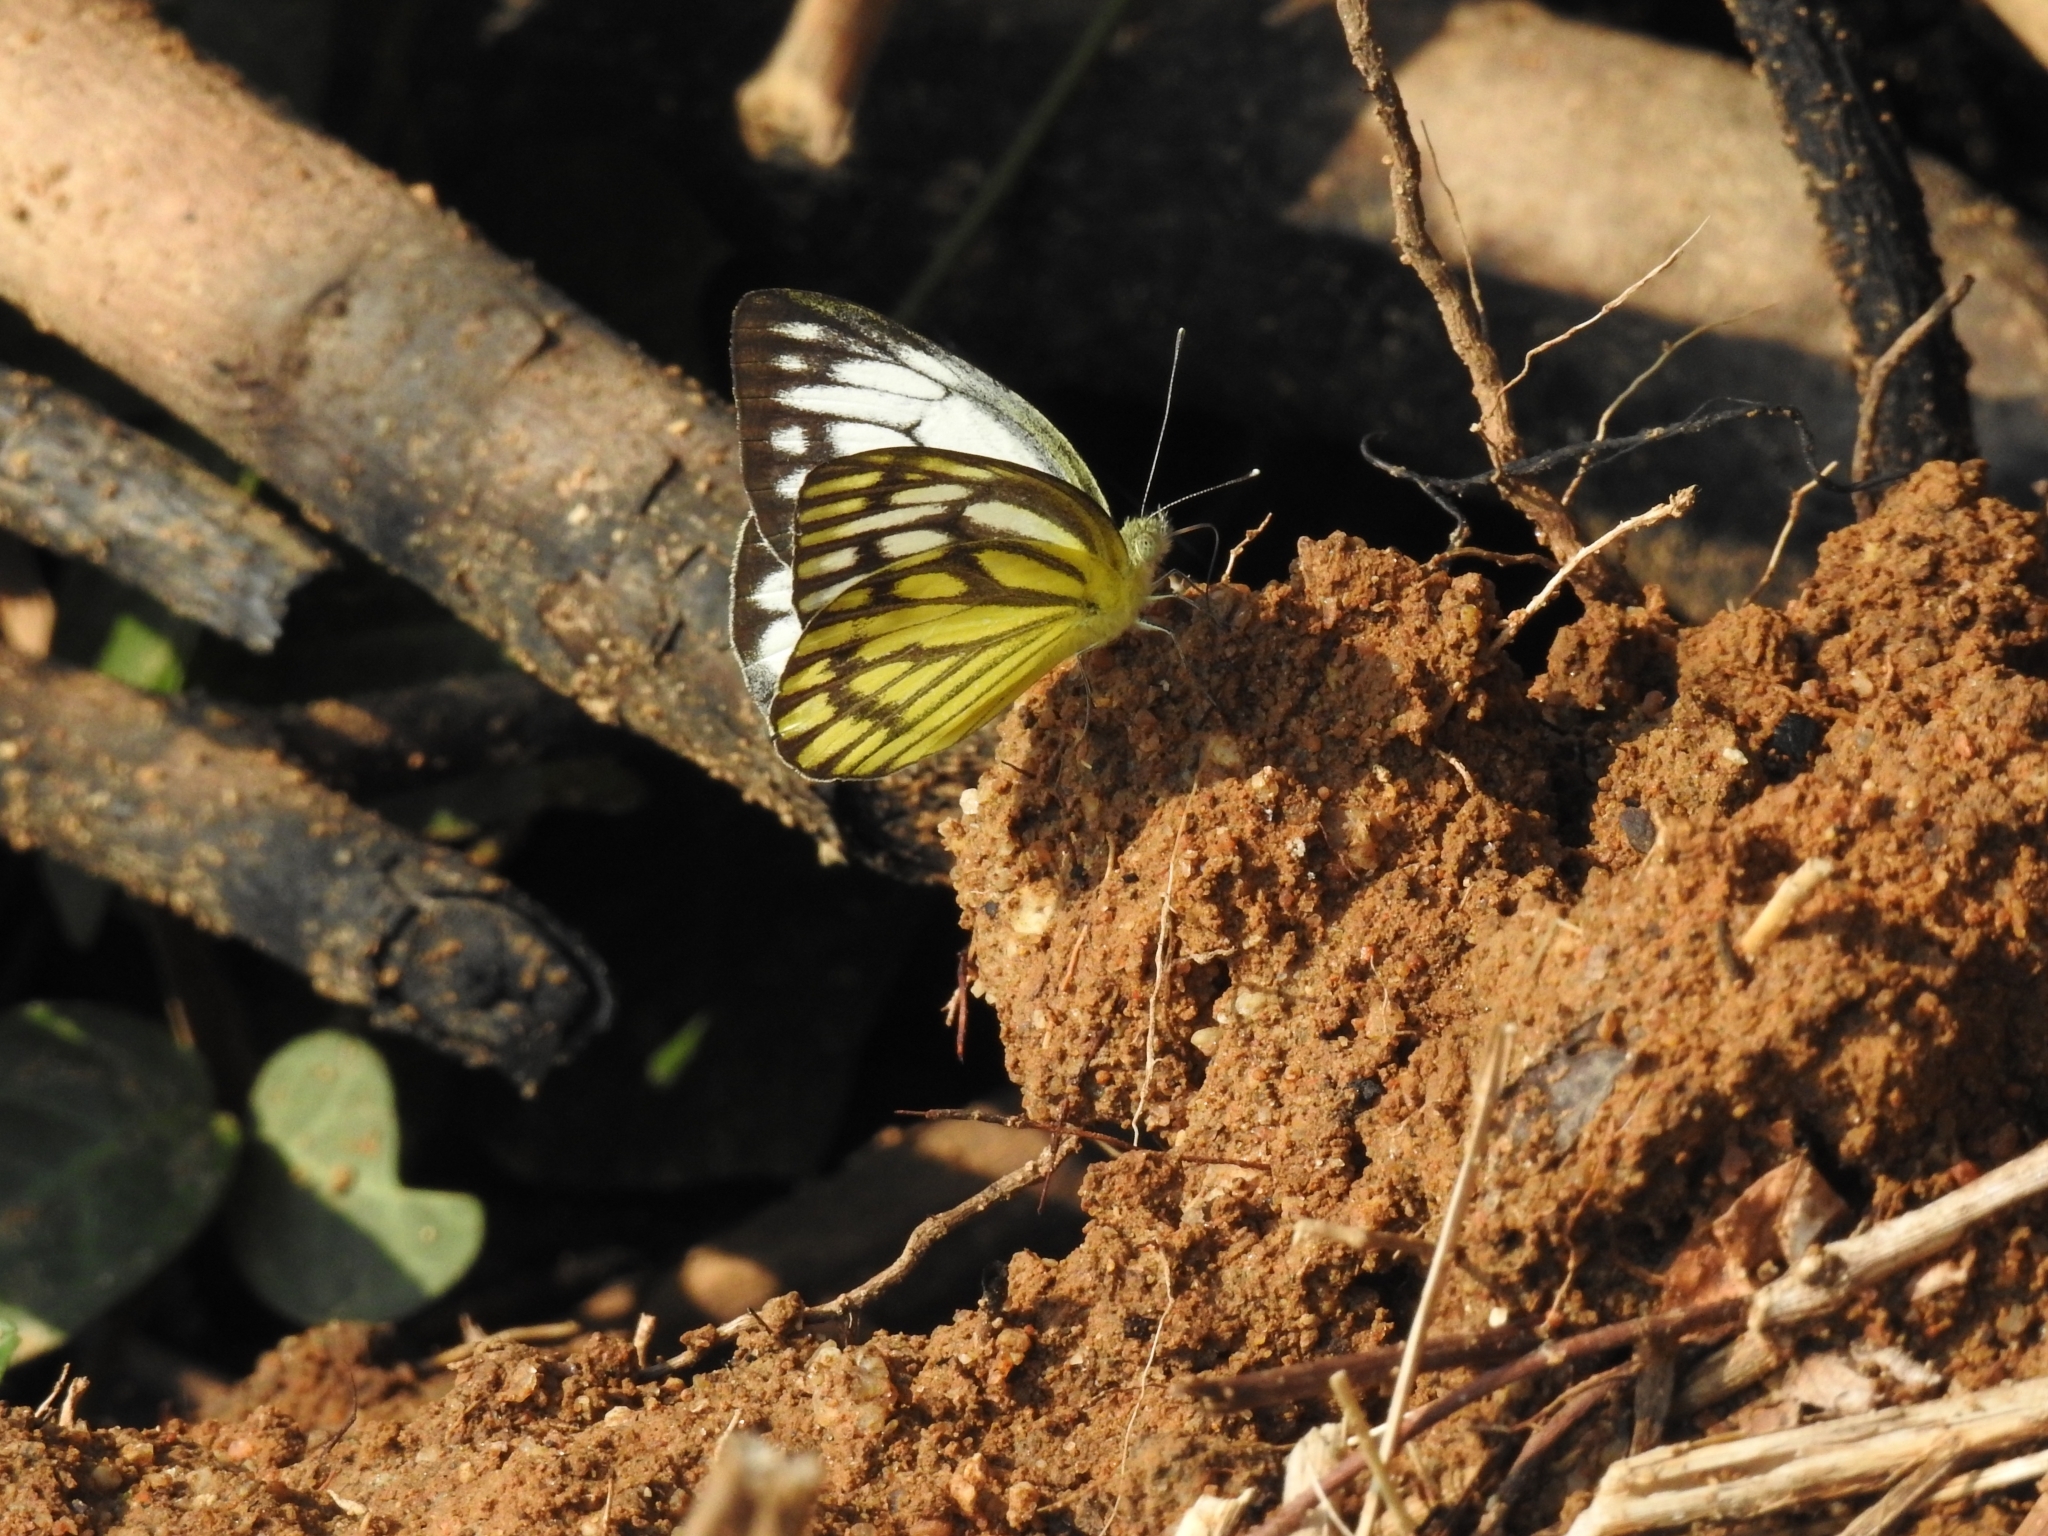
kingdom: Animalia
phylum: Arthropoda
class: Insecta
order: Lepidoptera
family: Pieridae
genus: Cepora
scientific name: Cepora nerissa
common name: Common gull
